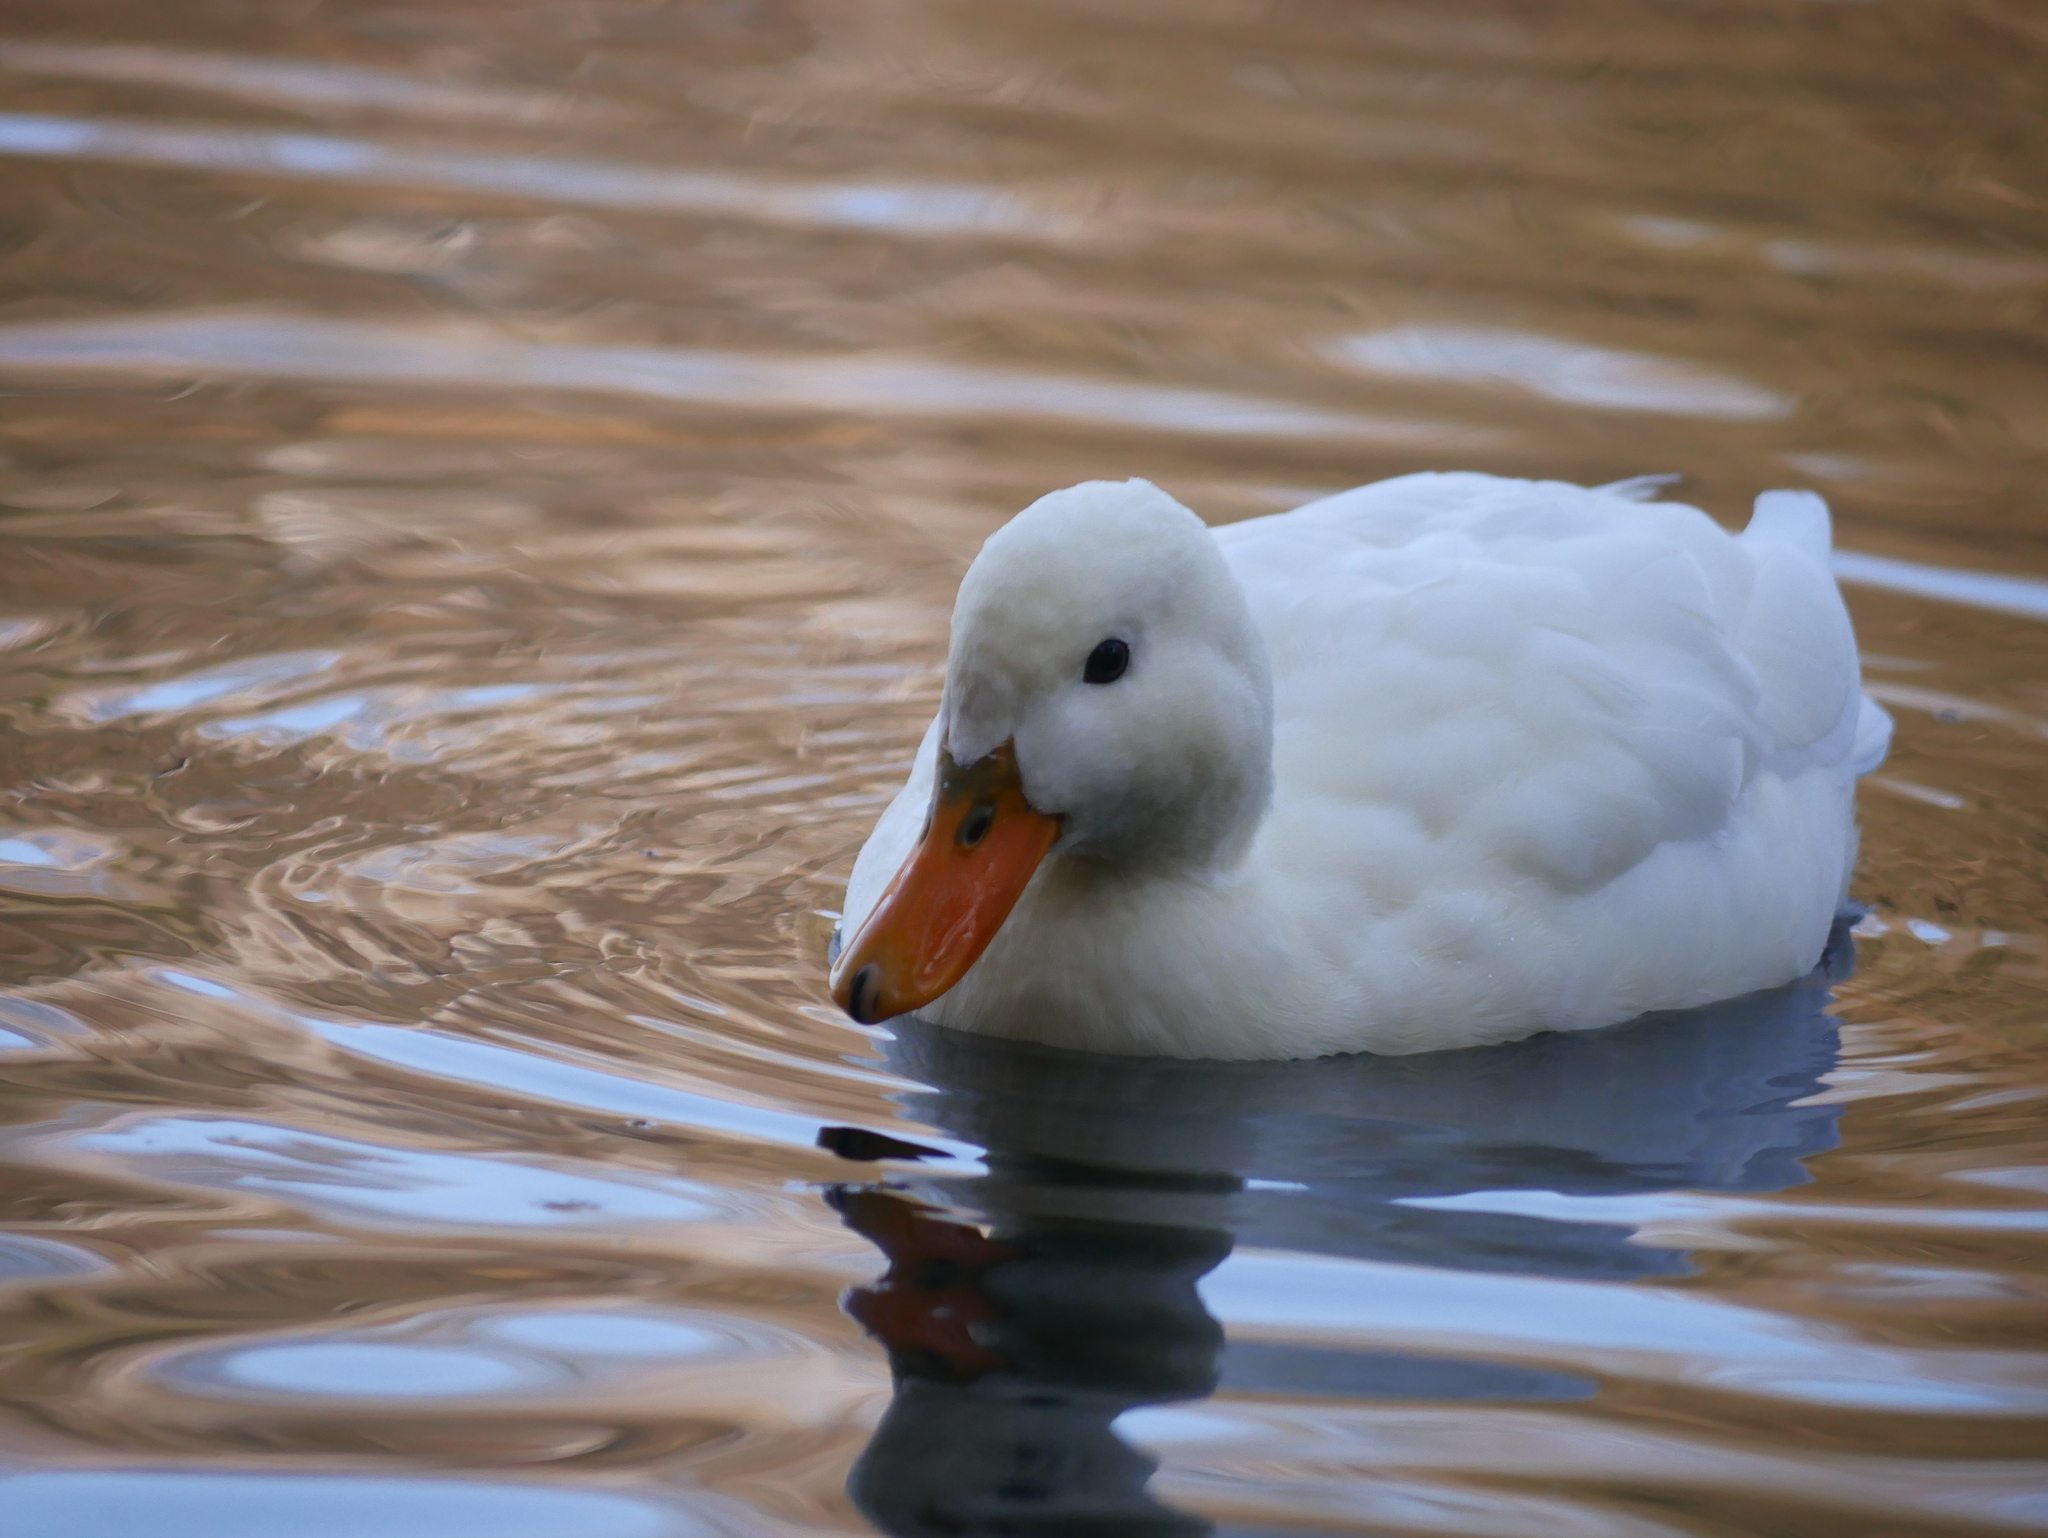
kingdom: Animalia
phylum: Chordata
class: Aves
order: Anseriformes
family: Anatidae
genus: Anas
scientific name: Anas platyrhynchos
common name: Mallard
